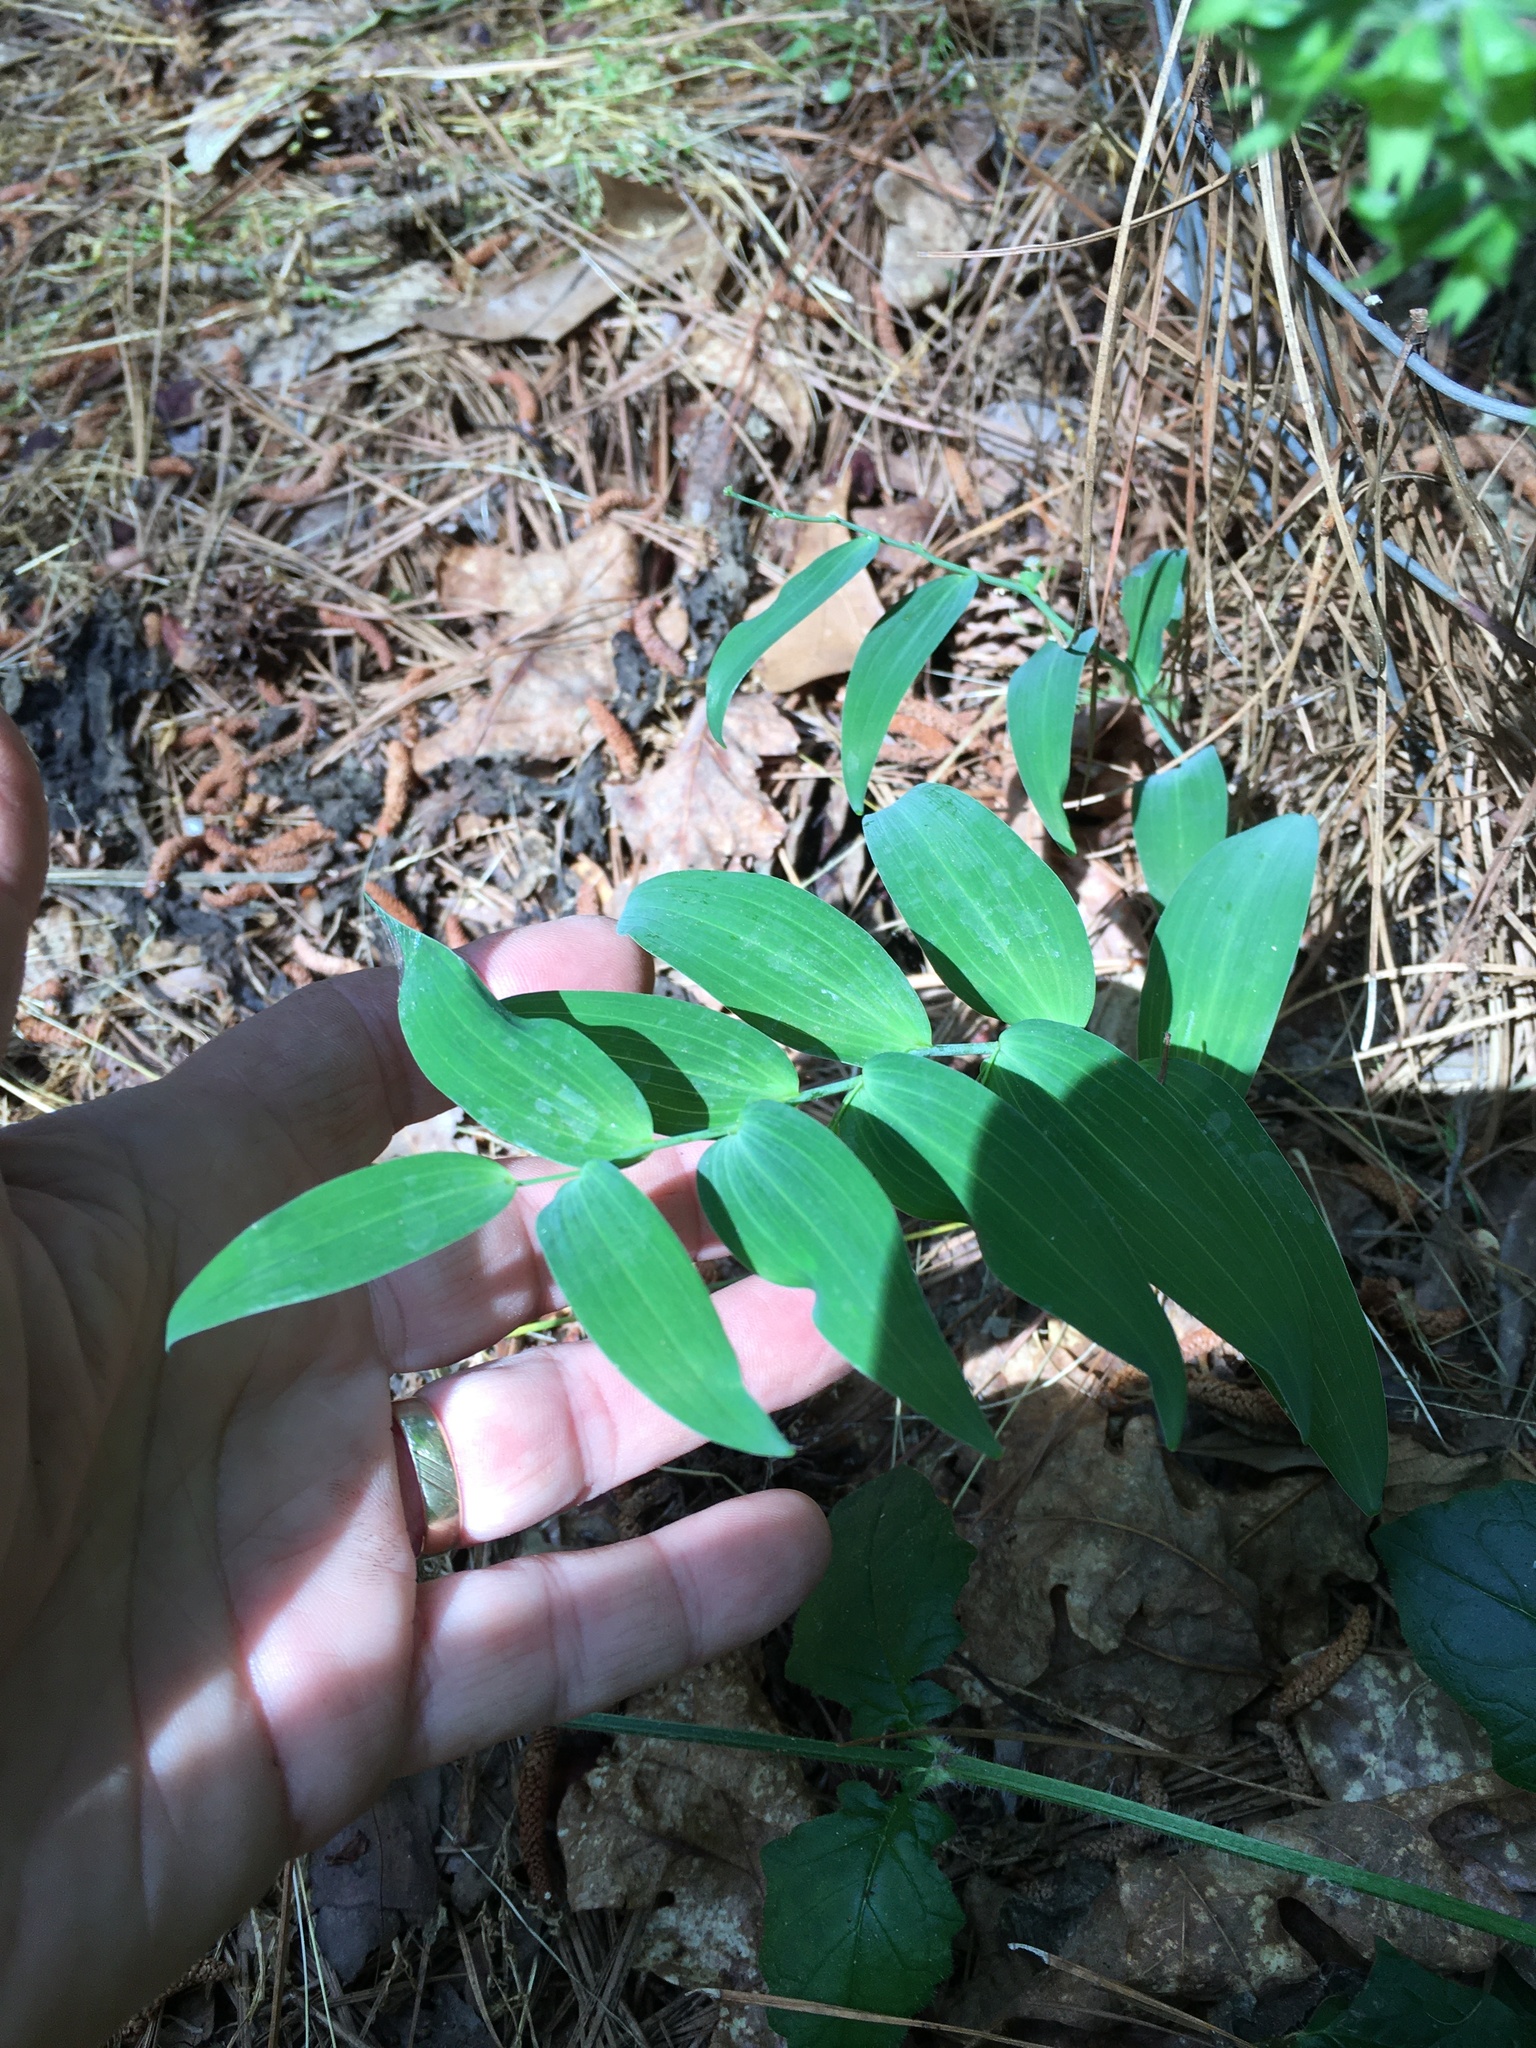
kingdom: Plantae
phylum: Tracheophyta
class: Liliopsida
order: Asparagales
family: Asparagaceae
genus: Polygonatum
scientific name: Polygonatum biflorum
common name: American solomon's-seal
